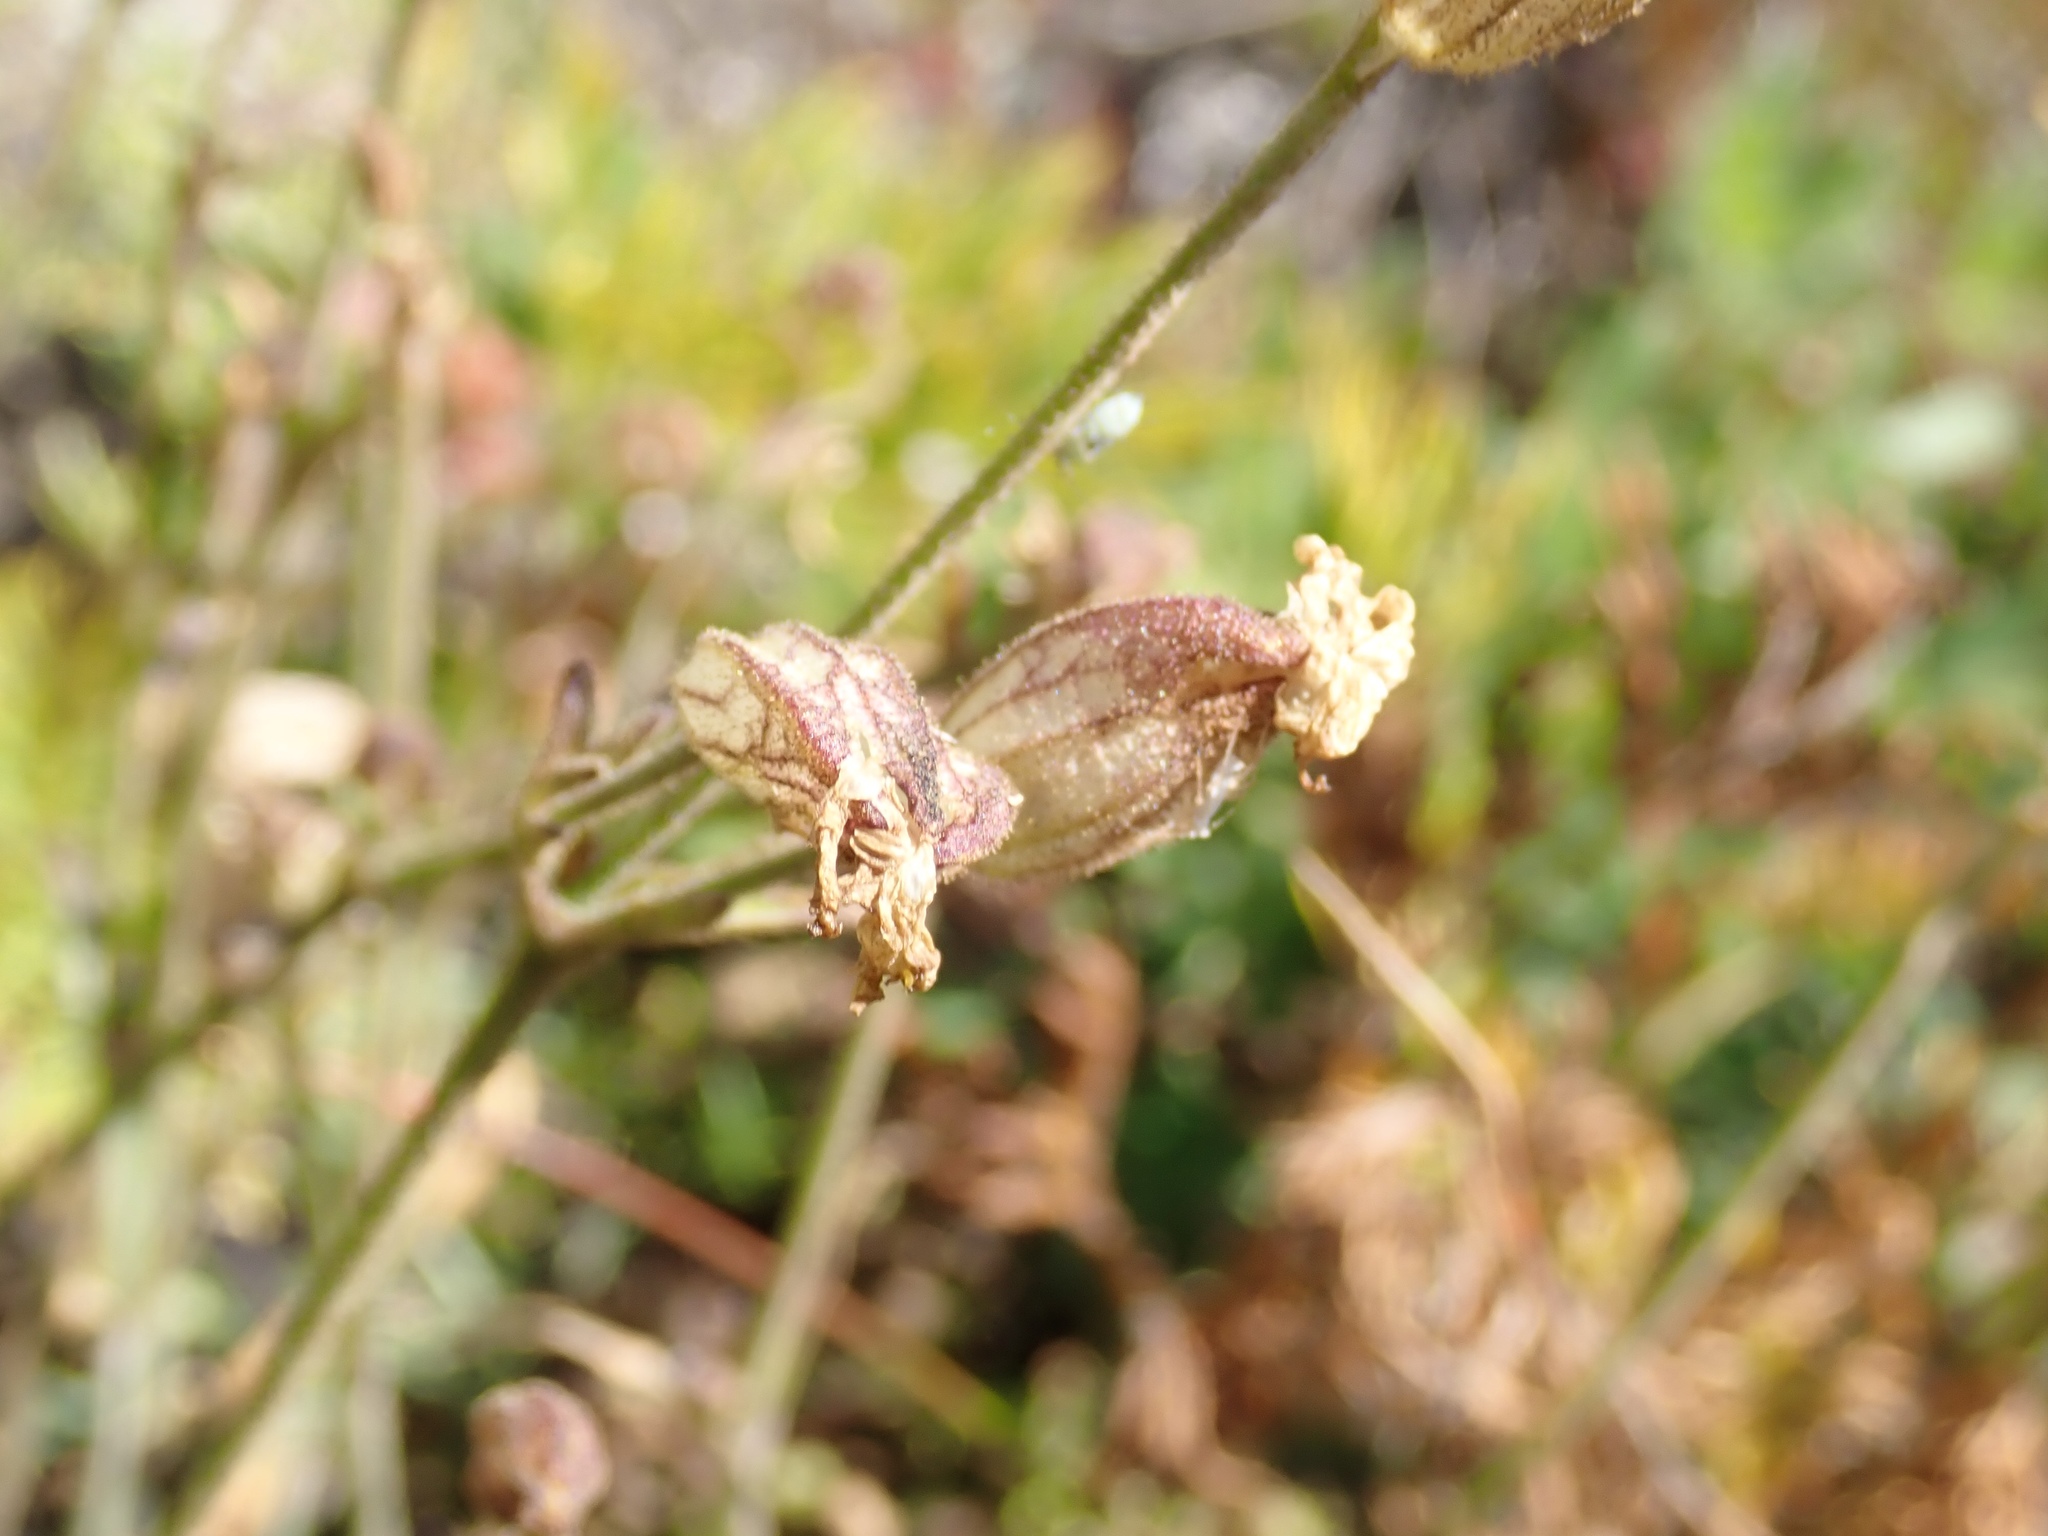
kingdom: Plantae
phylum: Tracheophyta
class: Magnoliopsida
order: Caryophyllales
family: Caryophyllaceae
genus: Silene
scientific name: Silene parryi
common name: Parry's campion
